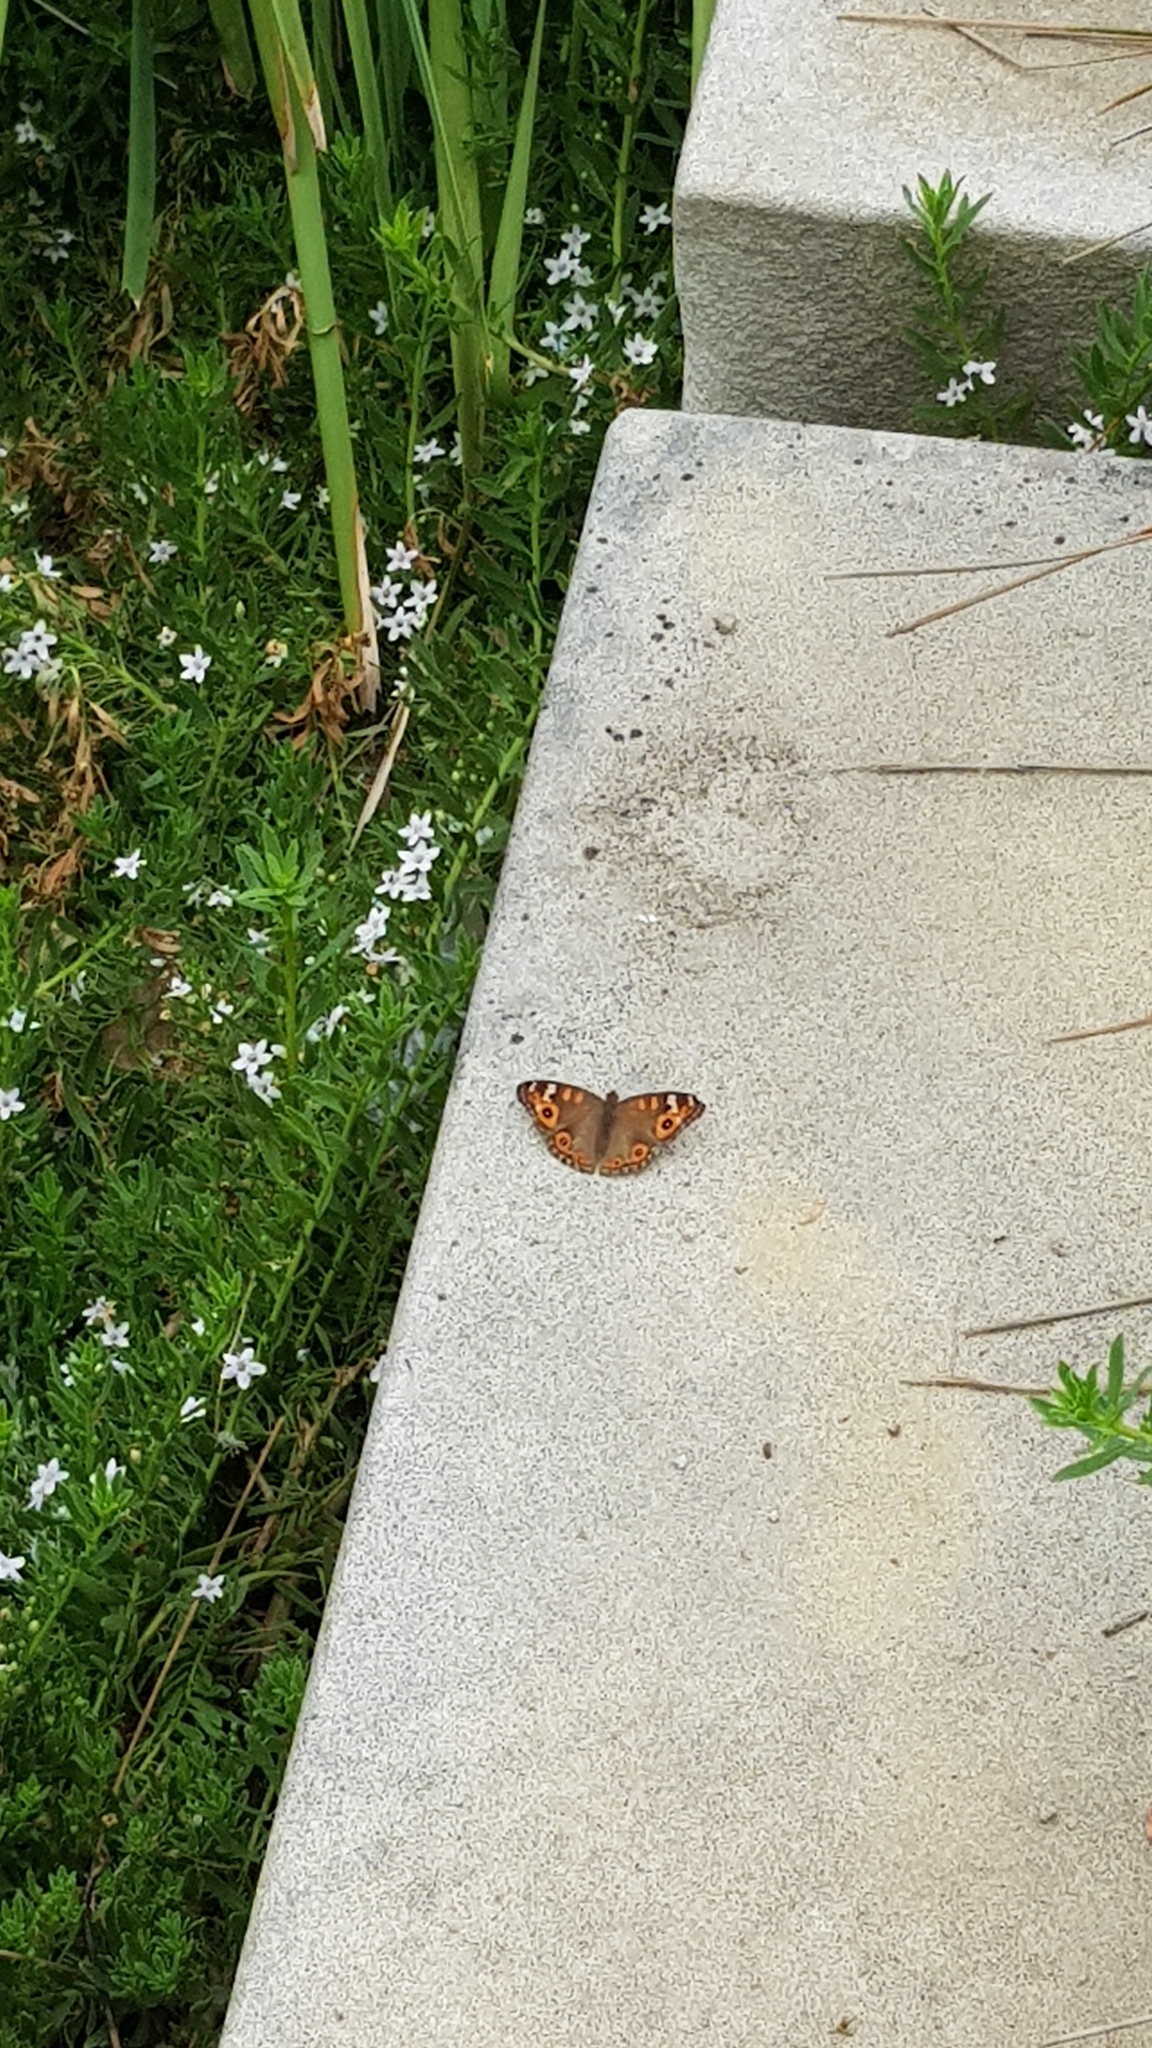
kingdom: Animalia
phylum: Arthropoda
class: Insecta
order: Lepidoptera
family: Nymphalidae
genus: Junonia
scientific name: Junonia villida
